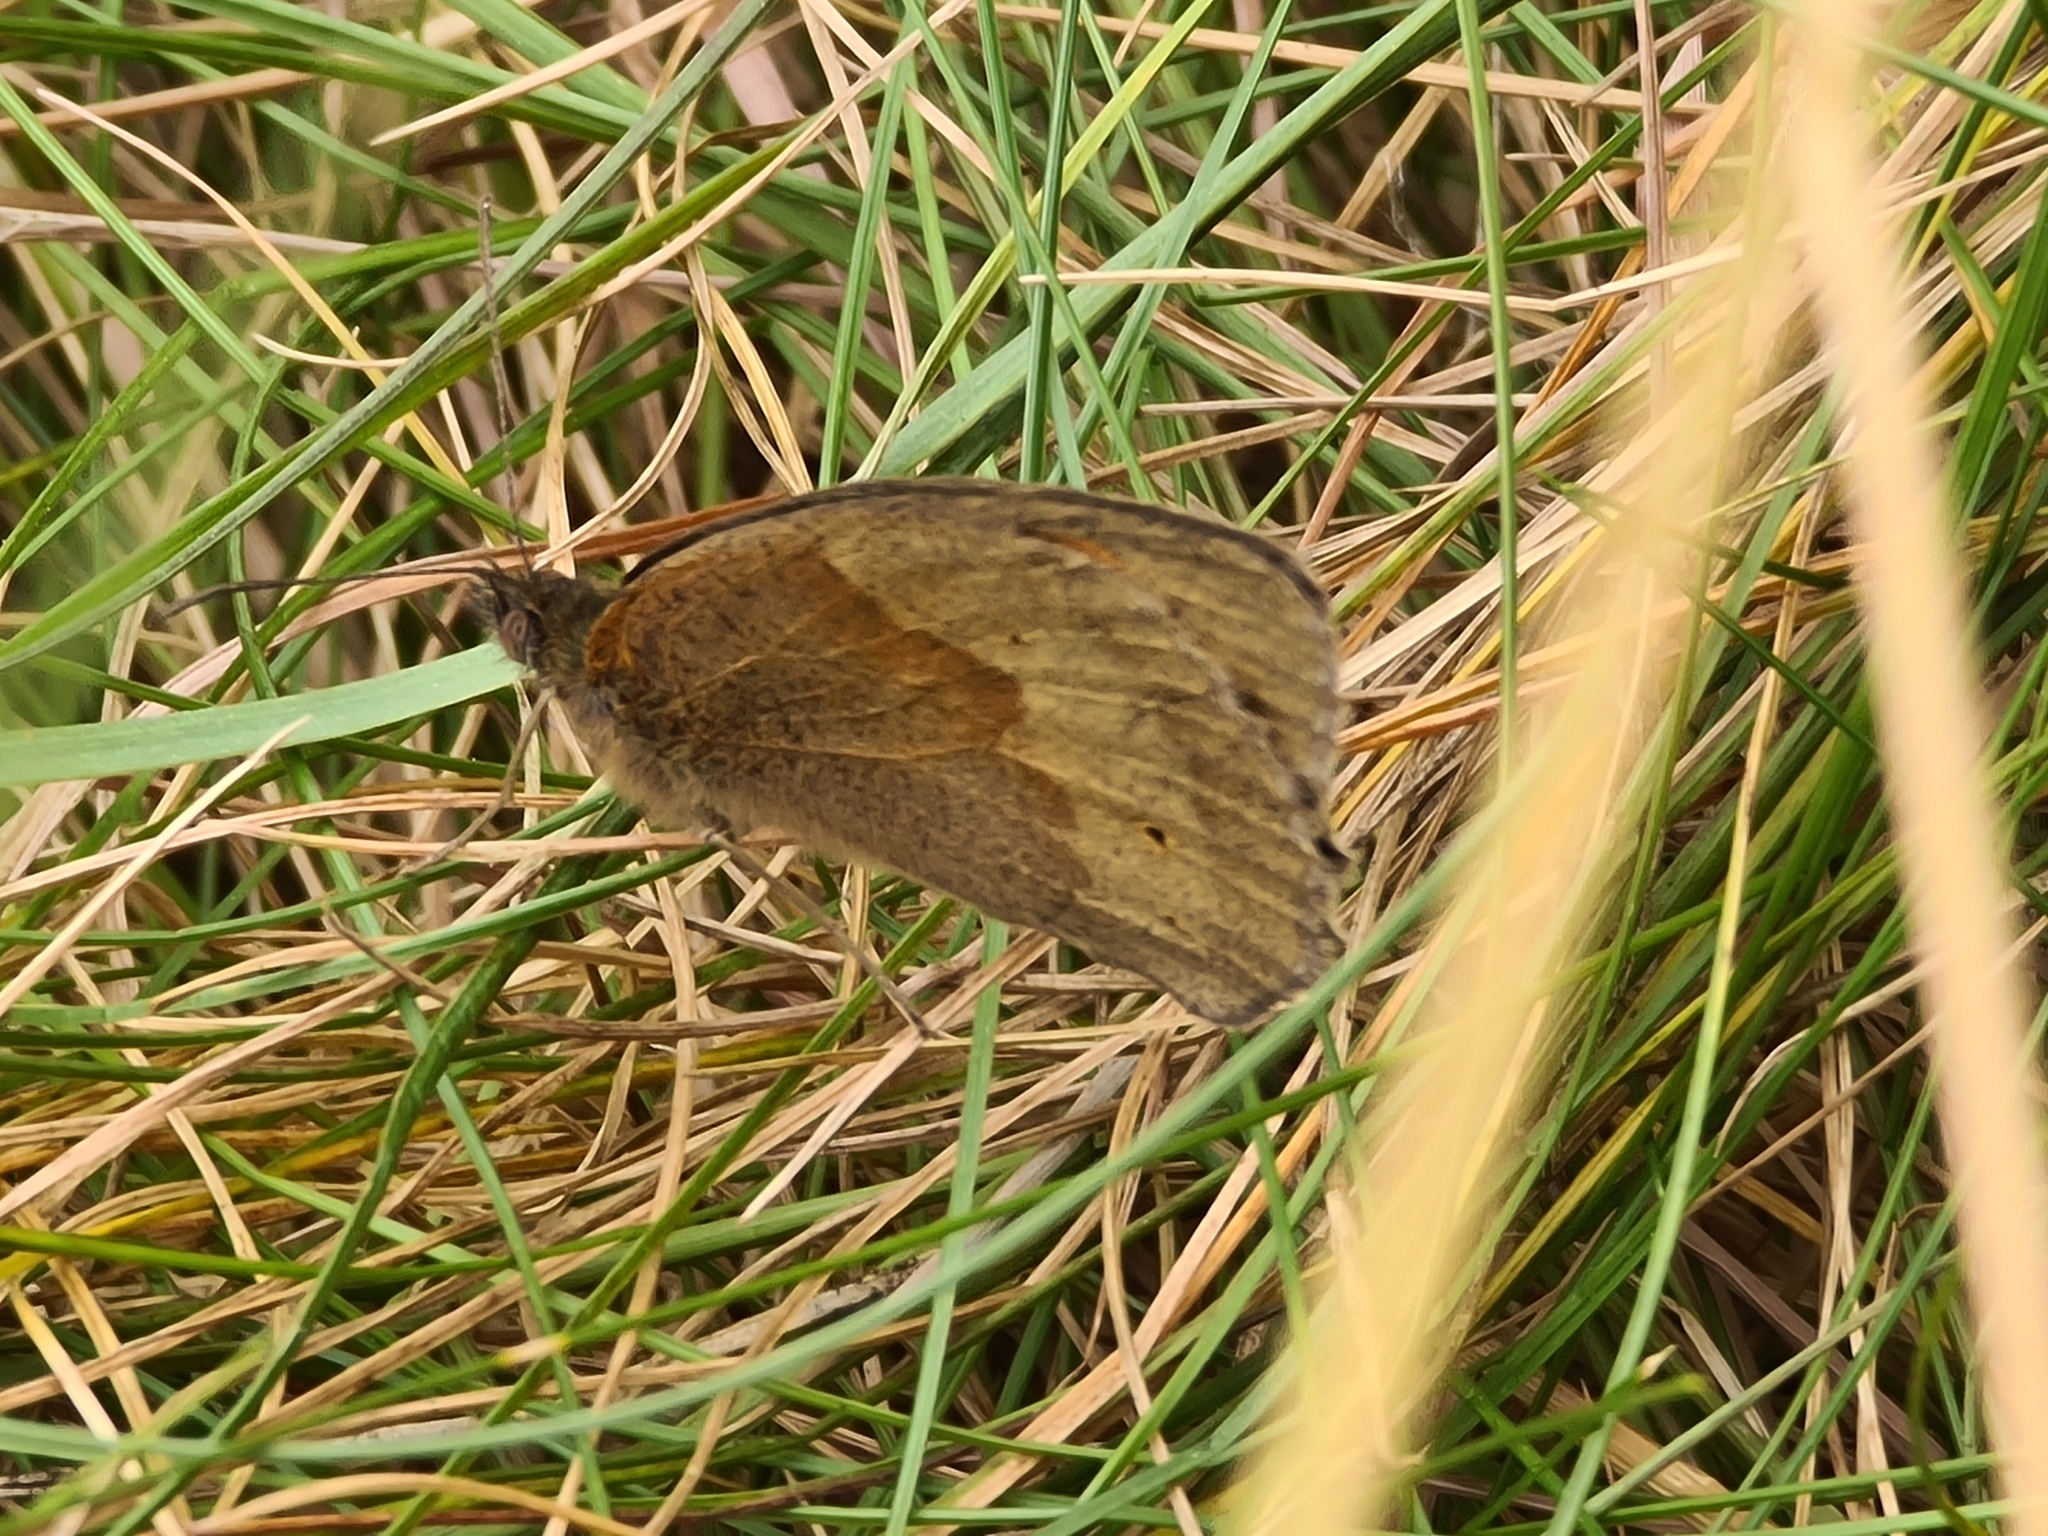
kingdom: Animalia
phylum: Arthropoda
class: Insecta
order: Lepidoptera
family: Nymphalidae
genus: Maniola
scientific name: Maniola jurtina
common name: Meadow brown
